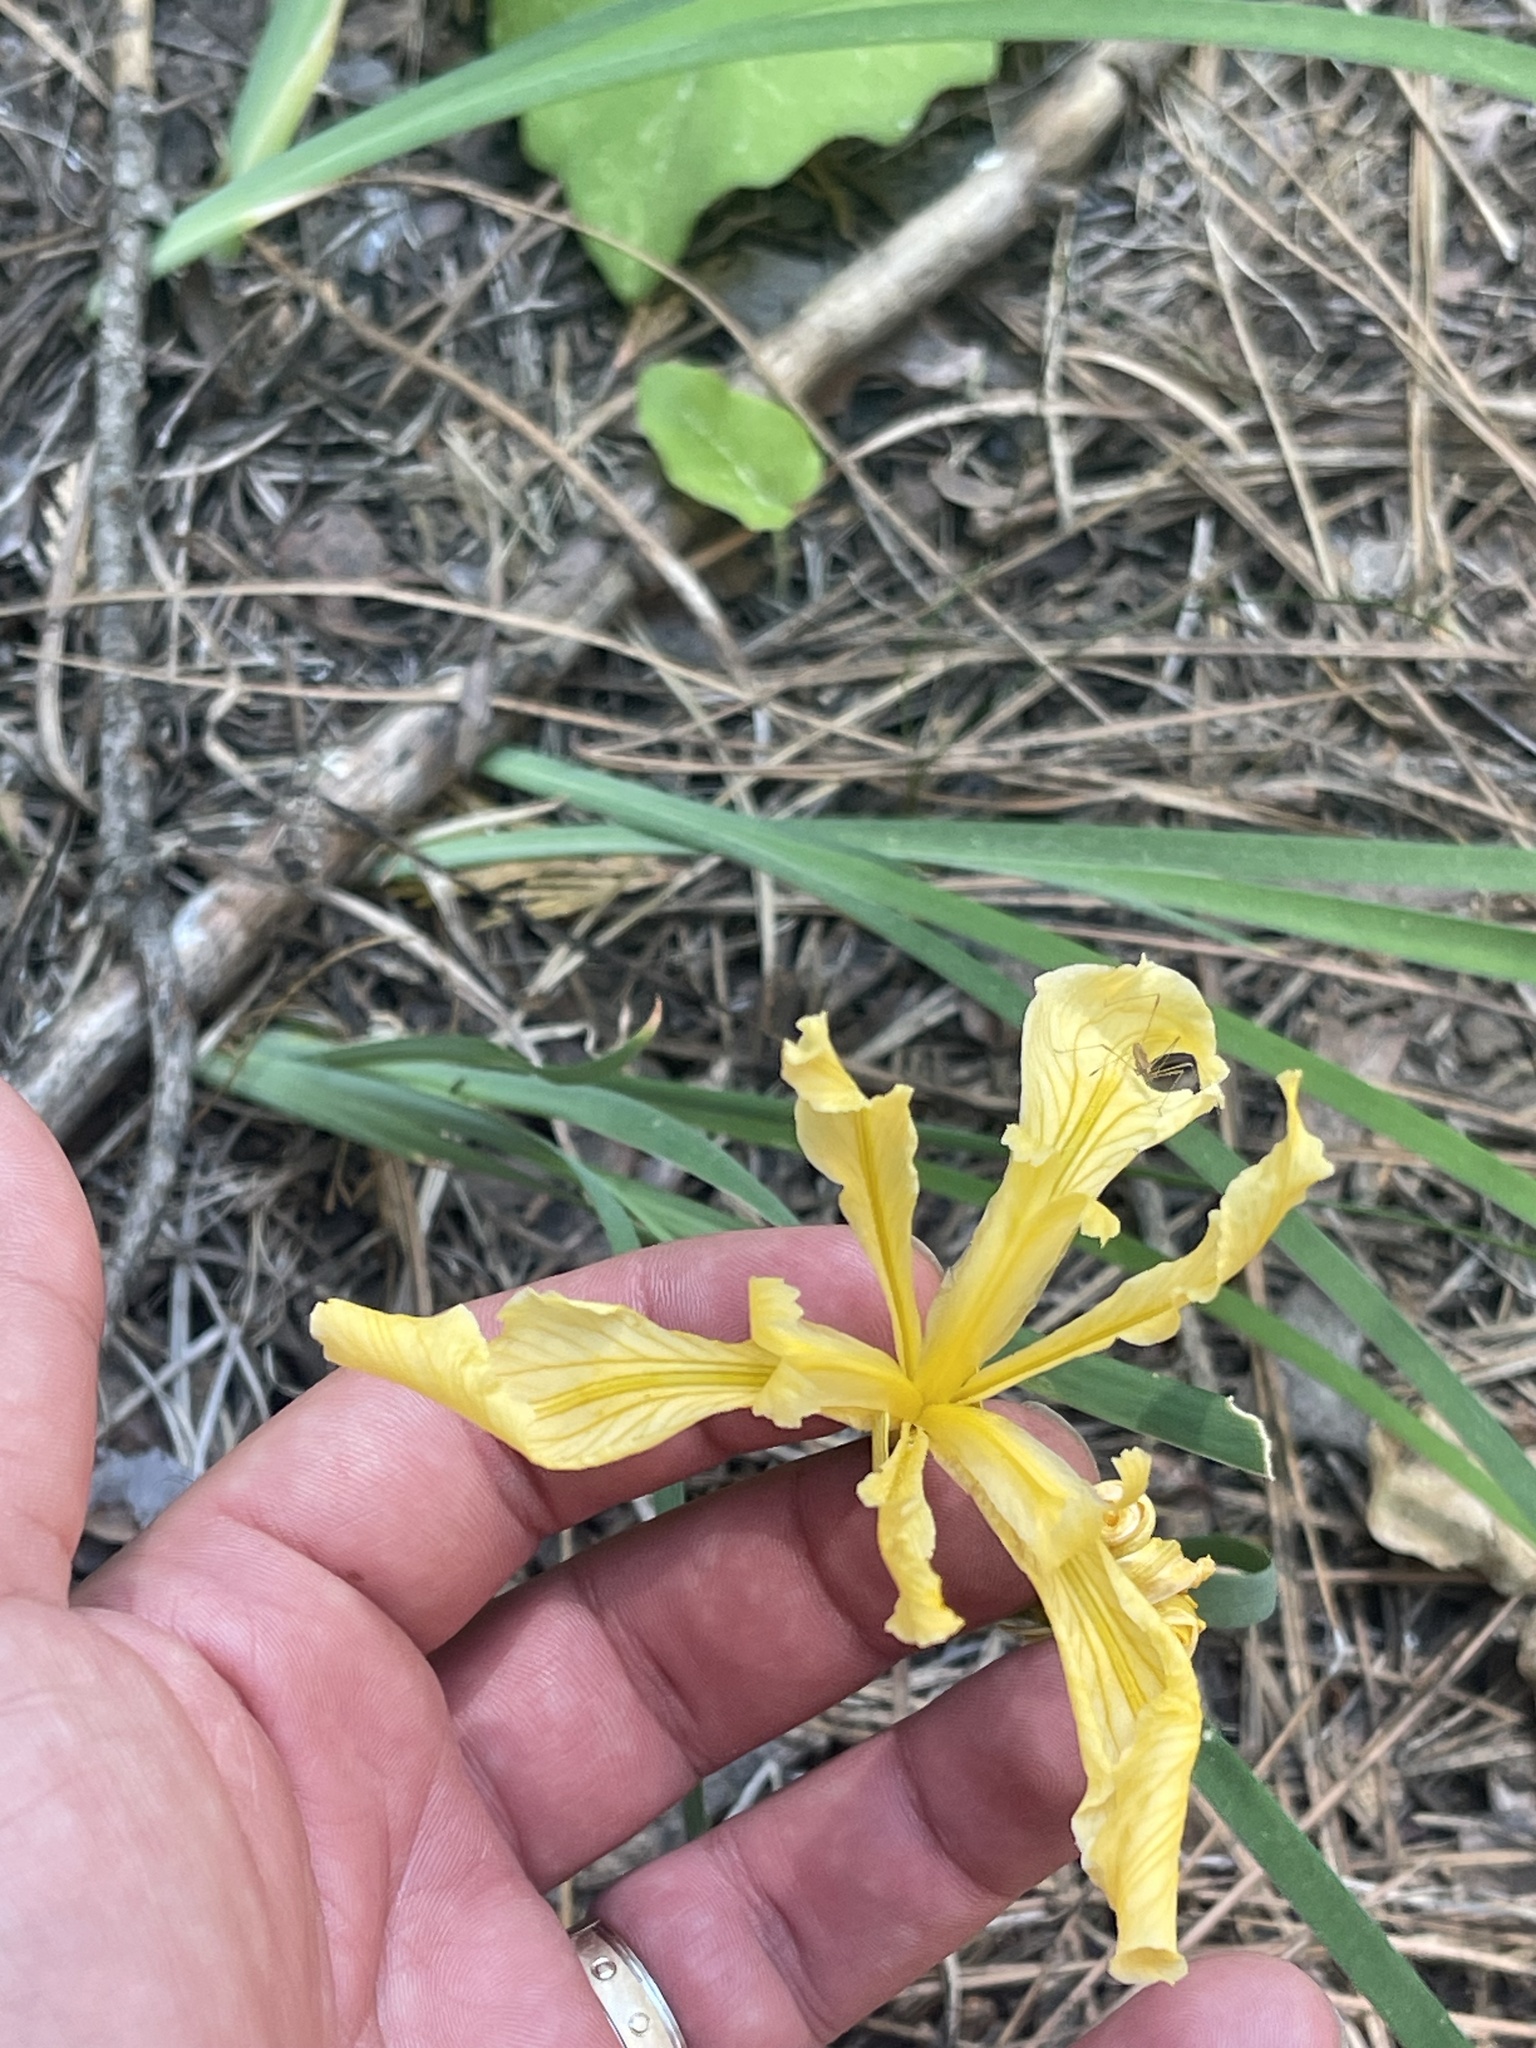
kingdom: Plantae
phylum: Tracheophyta
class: Liliopsida
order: Asparagales
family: Iridaceae
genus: Iris
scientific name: Iris hartwegii
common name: Sierra iris
